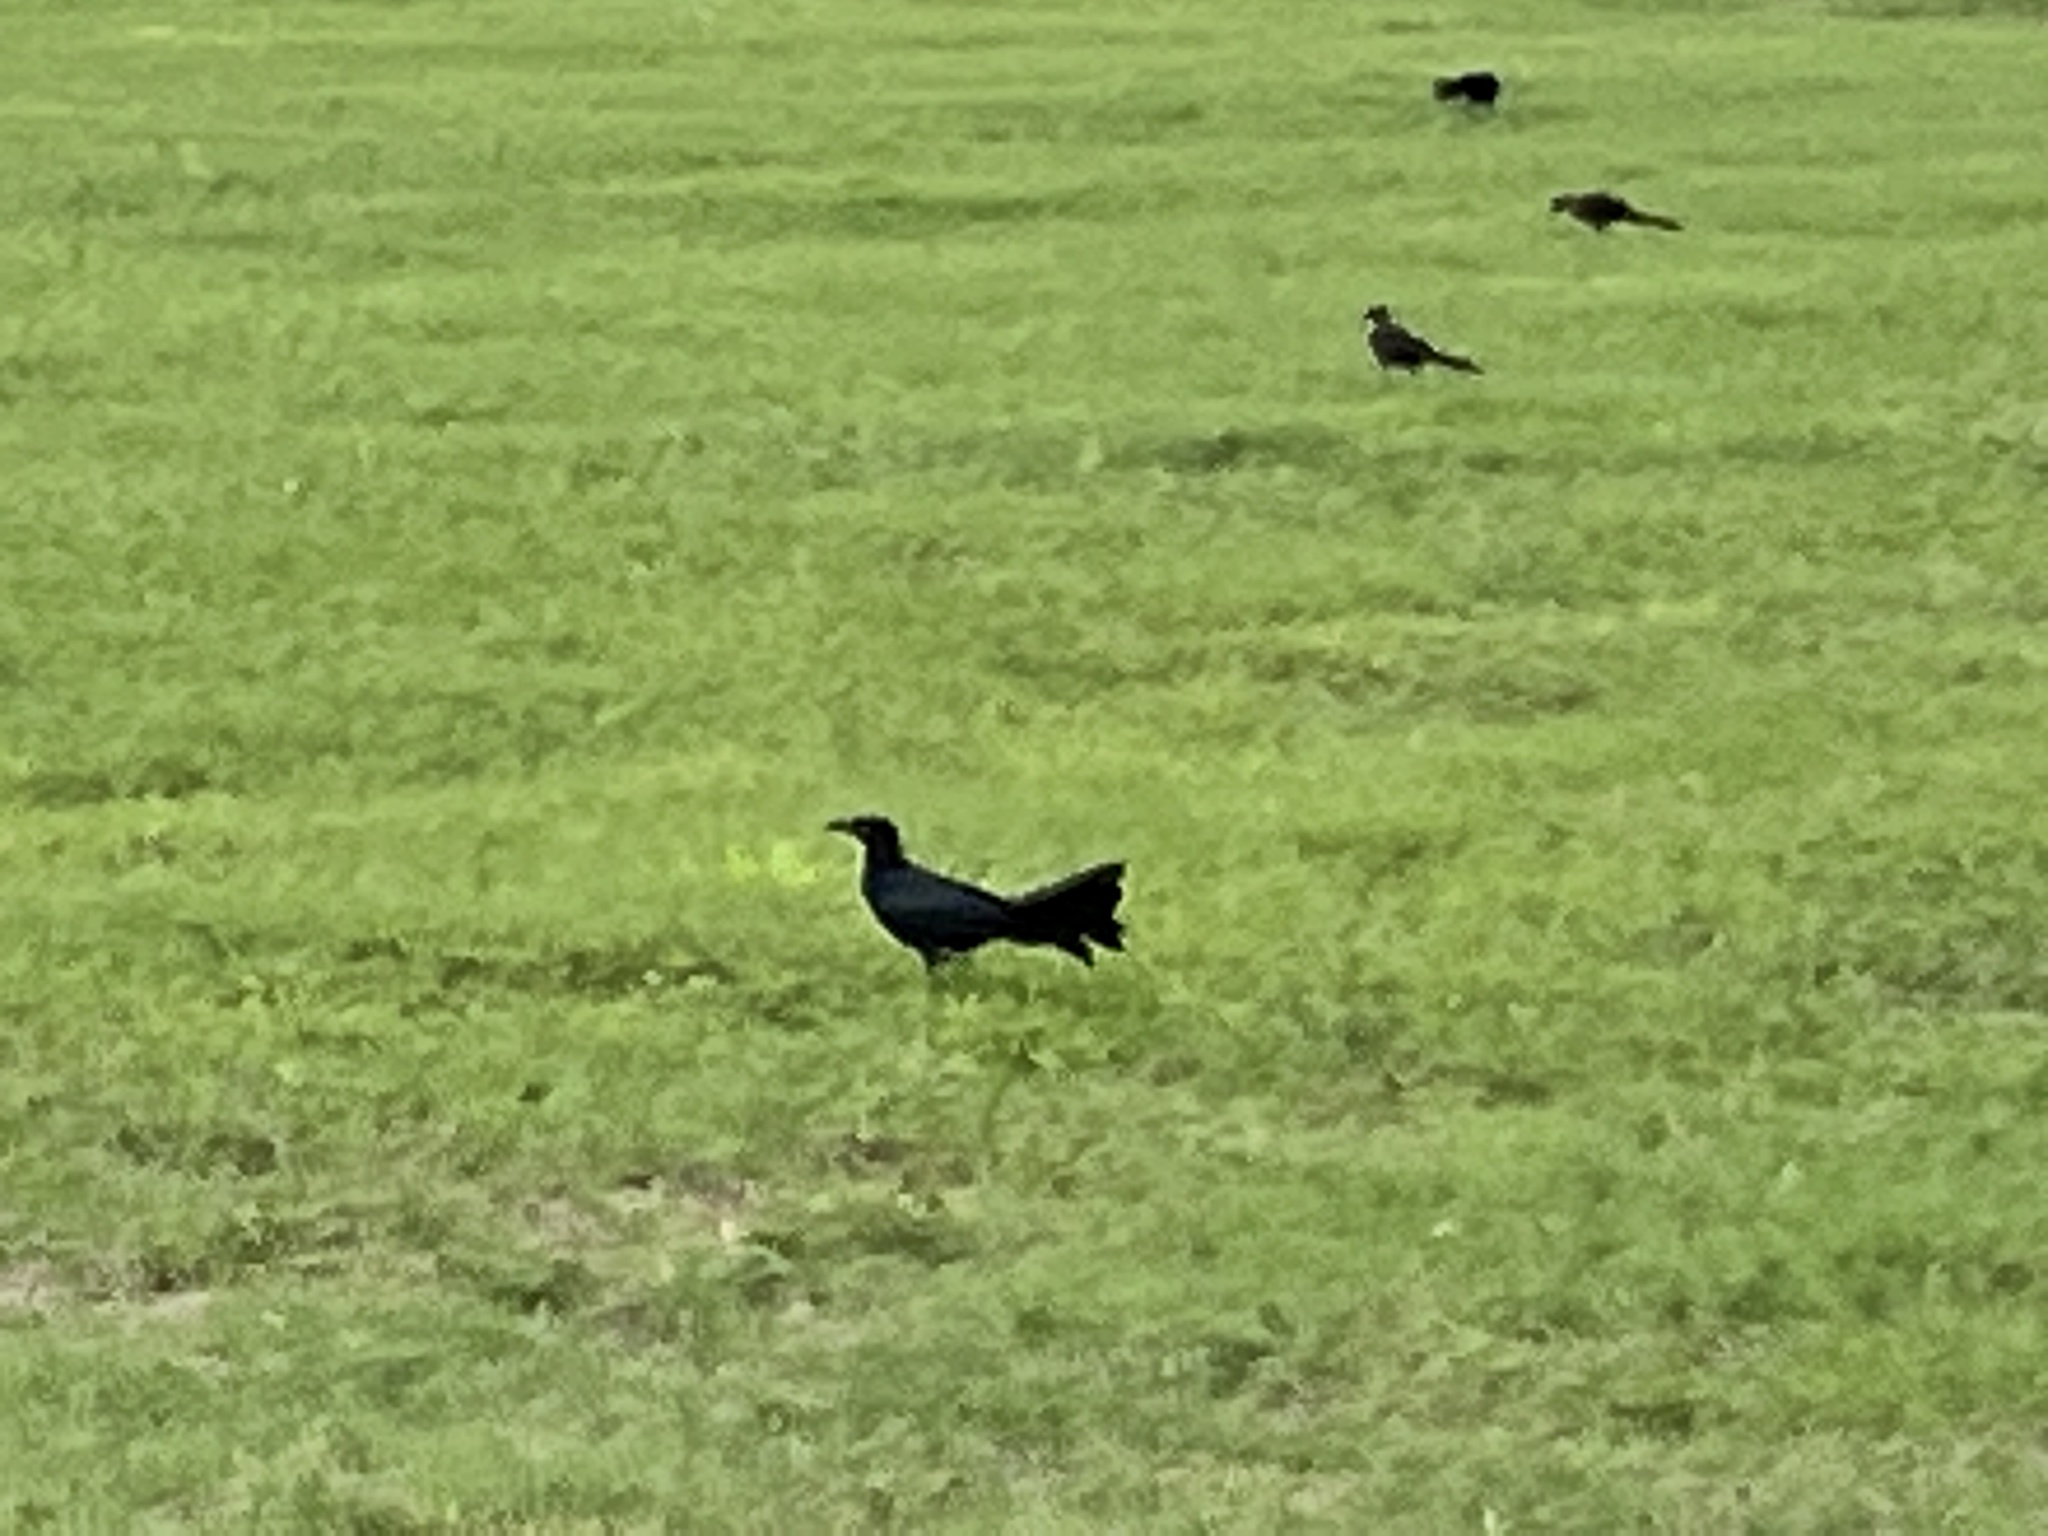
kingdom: Animalia
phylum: Chordata
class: Aves
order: Passeriformes
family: Icteridae
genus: Quiscalus
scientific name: Quiscalus mexicanus
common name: Great-tailed grackle
